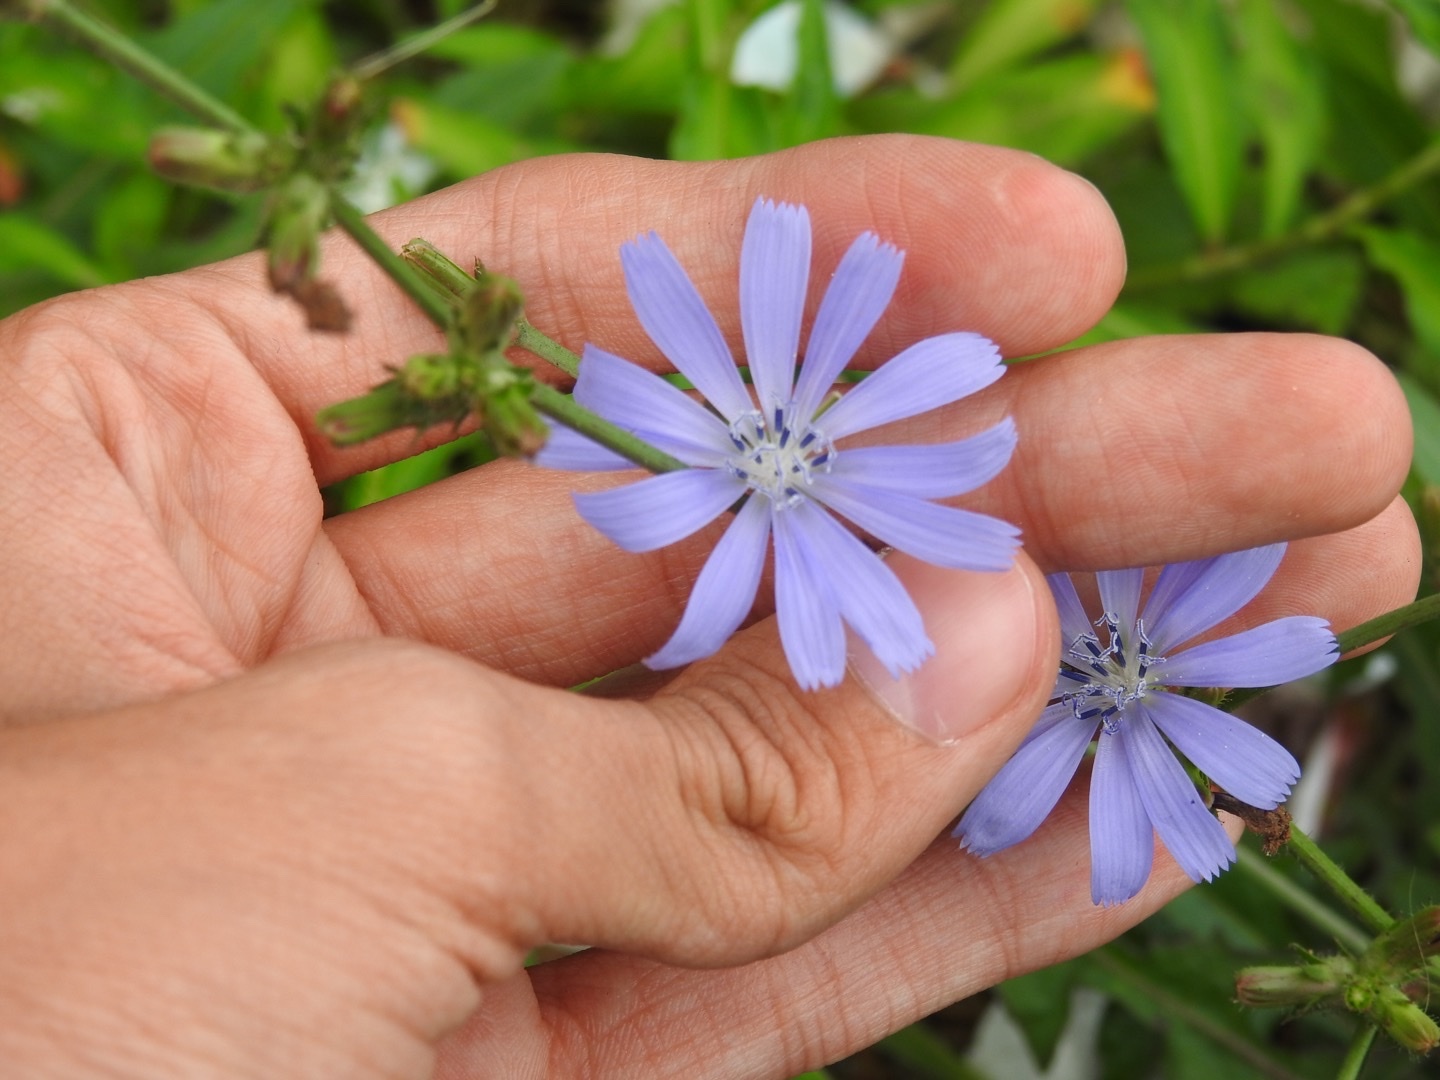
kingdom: Plantae
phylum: Tracheophyta
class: Magnoliopsida
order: Asterales
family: Asteraceae
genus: Cichorium
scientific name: Cichorium intybus
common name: Chicory
